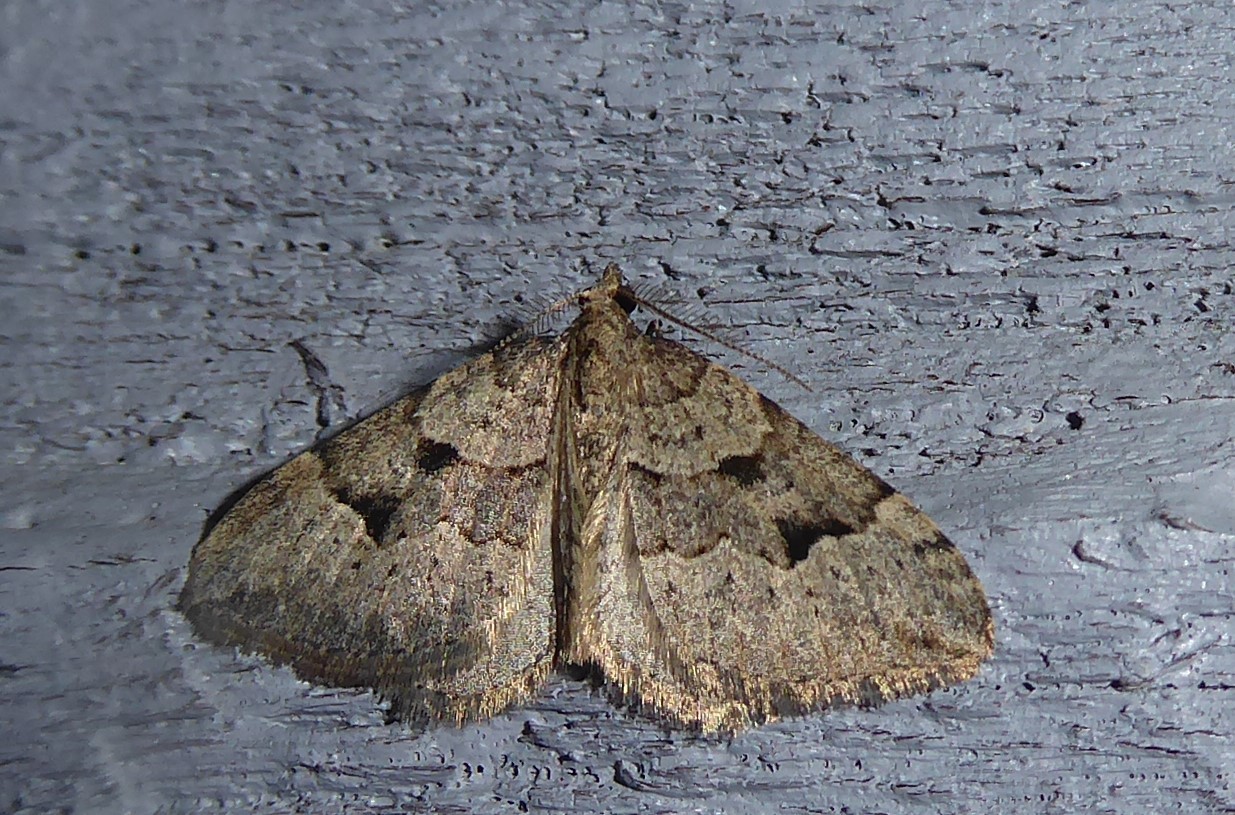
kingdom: Animalia
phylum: Arthropoda
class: Insecta
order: Lepidoptera
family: Geometridae
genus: Epyaxa
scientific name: Epyaxa rosearia
